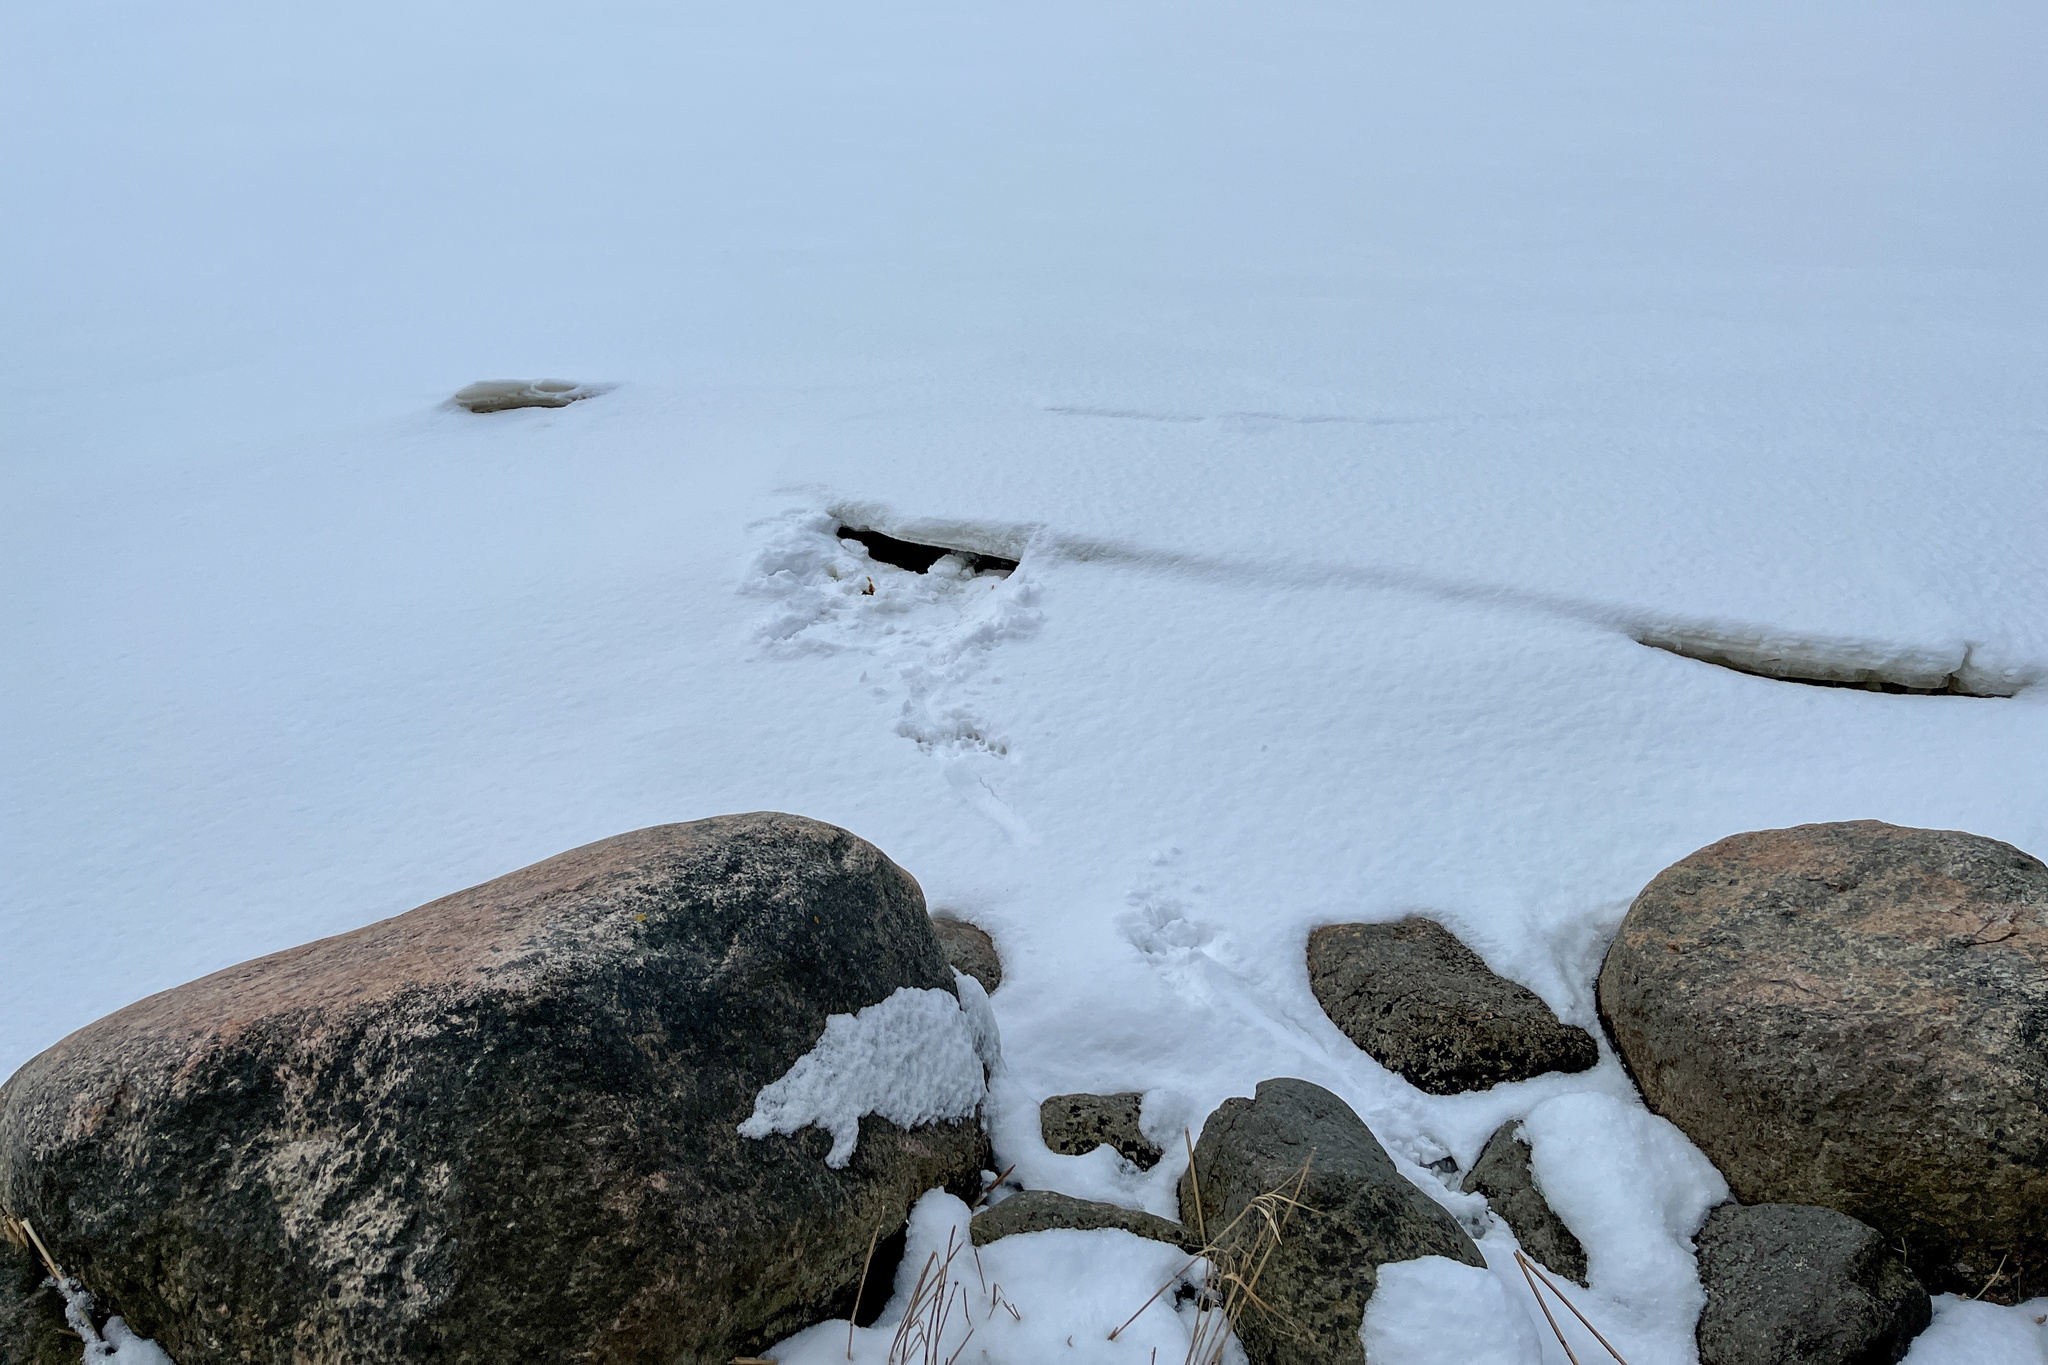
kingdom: Animalia
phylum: Chordata
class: Mammalia
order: Carnivora
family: Mustelidae
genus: Lutra
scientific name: Lutra lutra
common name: European otter
